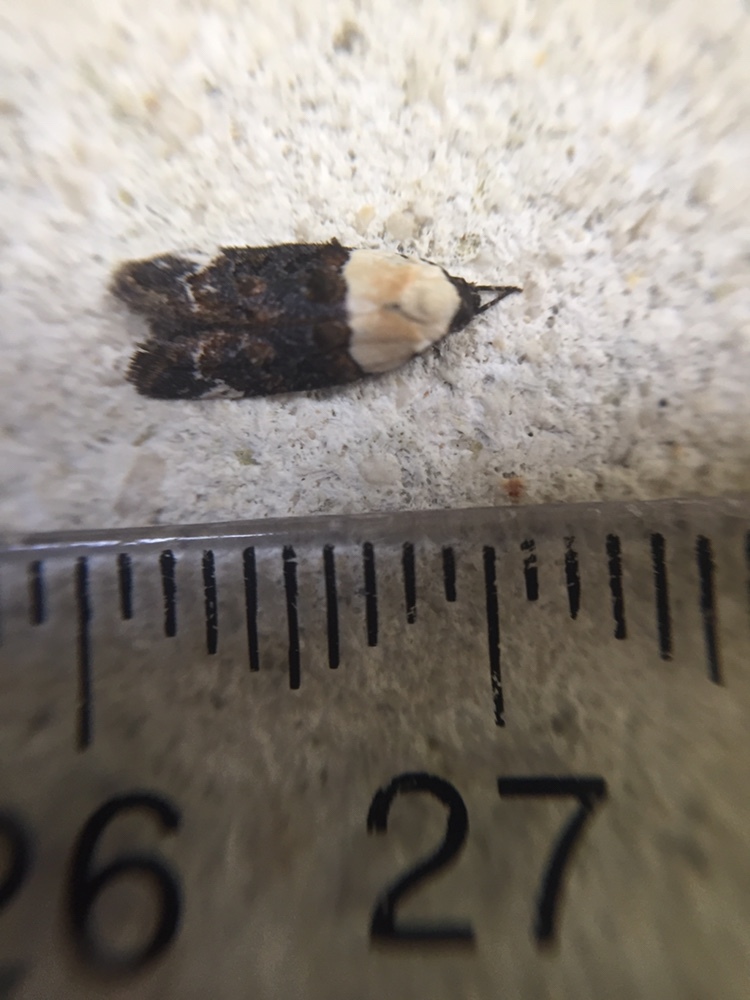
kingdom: Animalia
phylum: Arthropoda
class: Insecta
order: Lepidoptera
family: Oecophoridae
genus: Trachypepla
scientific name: Trachypepla euryleucota
